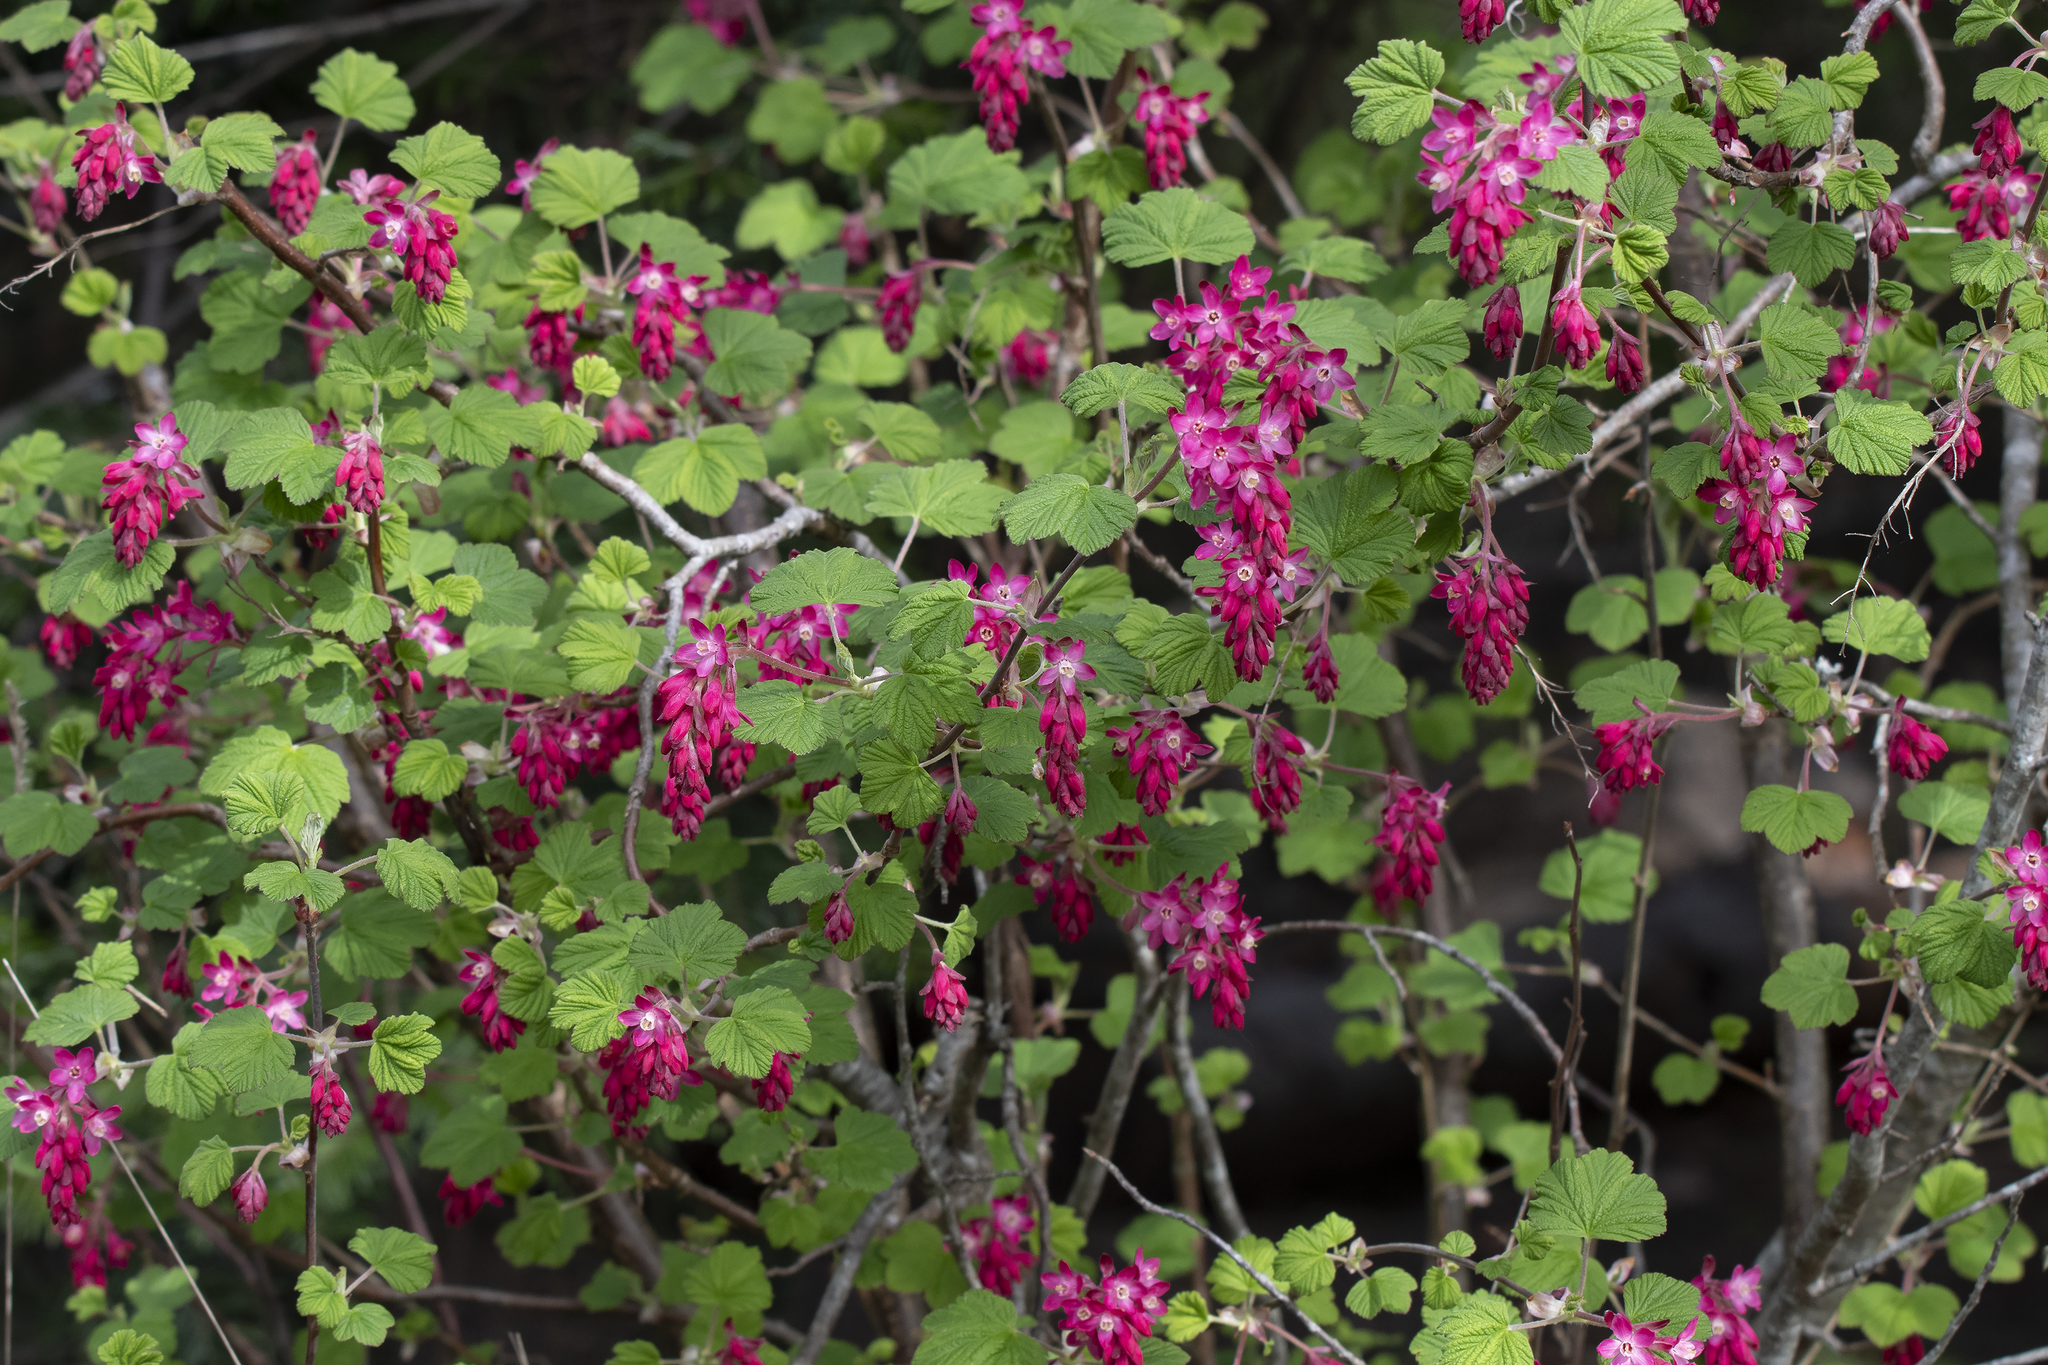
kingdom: Plantae
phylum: Tracheophyta
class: Magnoliopsida
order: Saxifragales
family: Grossulariaceae
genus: Ribes
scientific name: Ribes sanguineum
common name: Flowering currant
